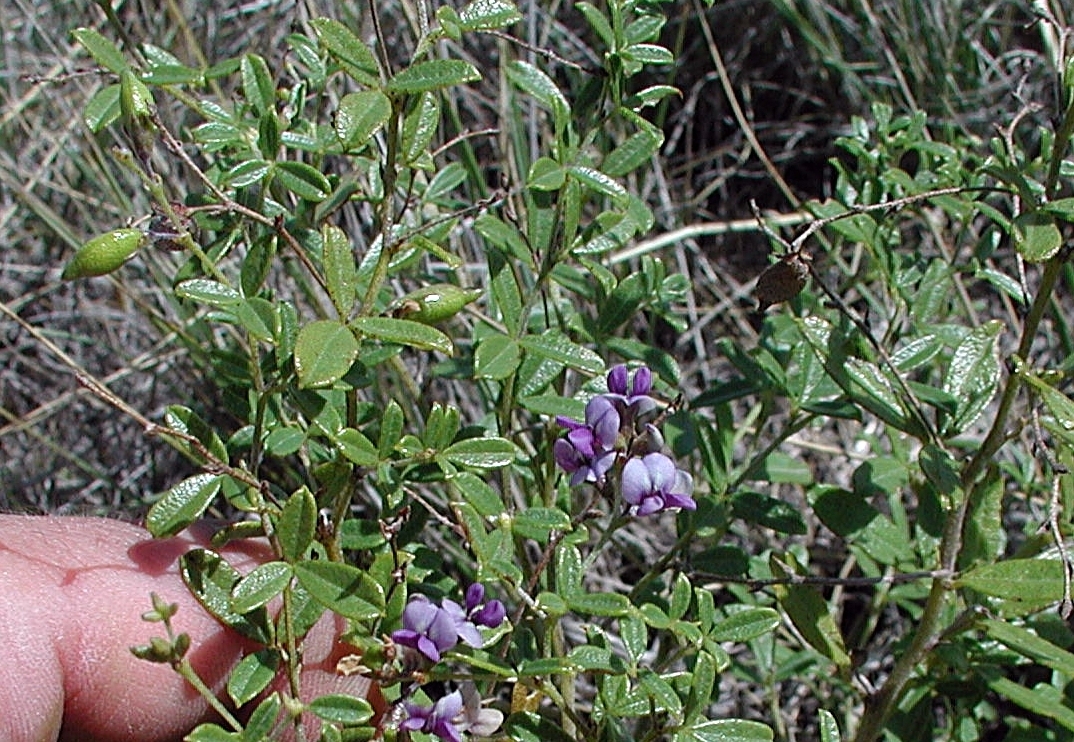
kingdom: Plantae
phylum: Tracheophyta
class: Magnoliopsida
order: Fabales
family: Fabaceae
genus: Pediomelum
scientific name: Pediomelum tenuiflorum
